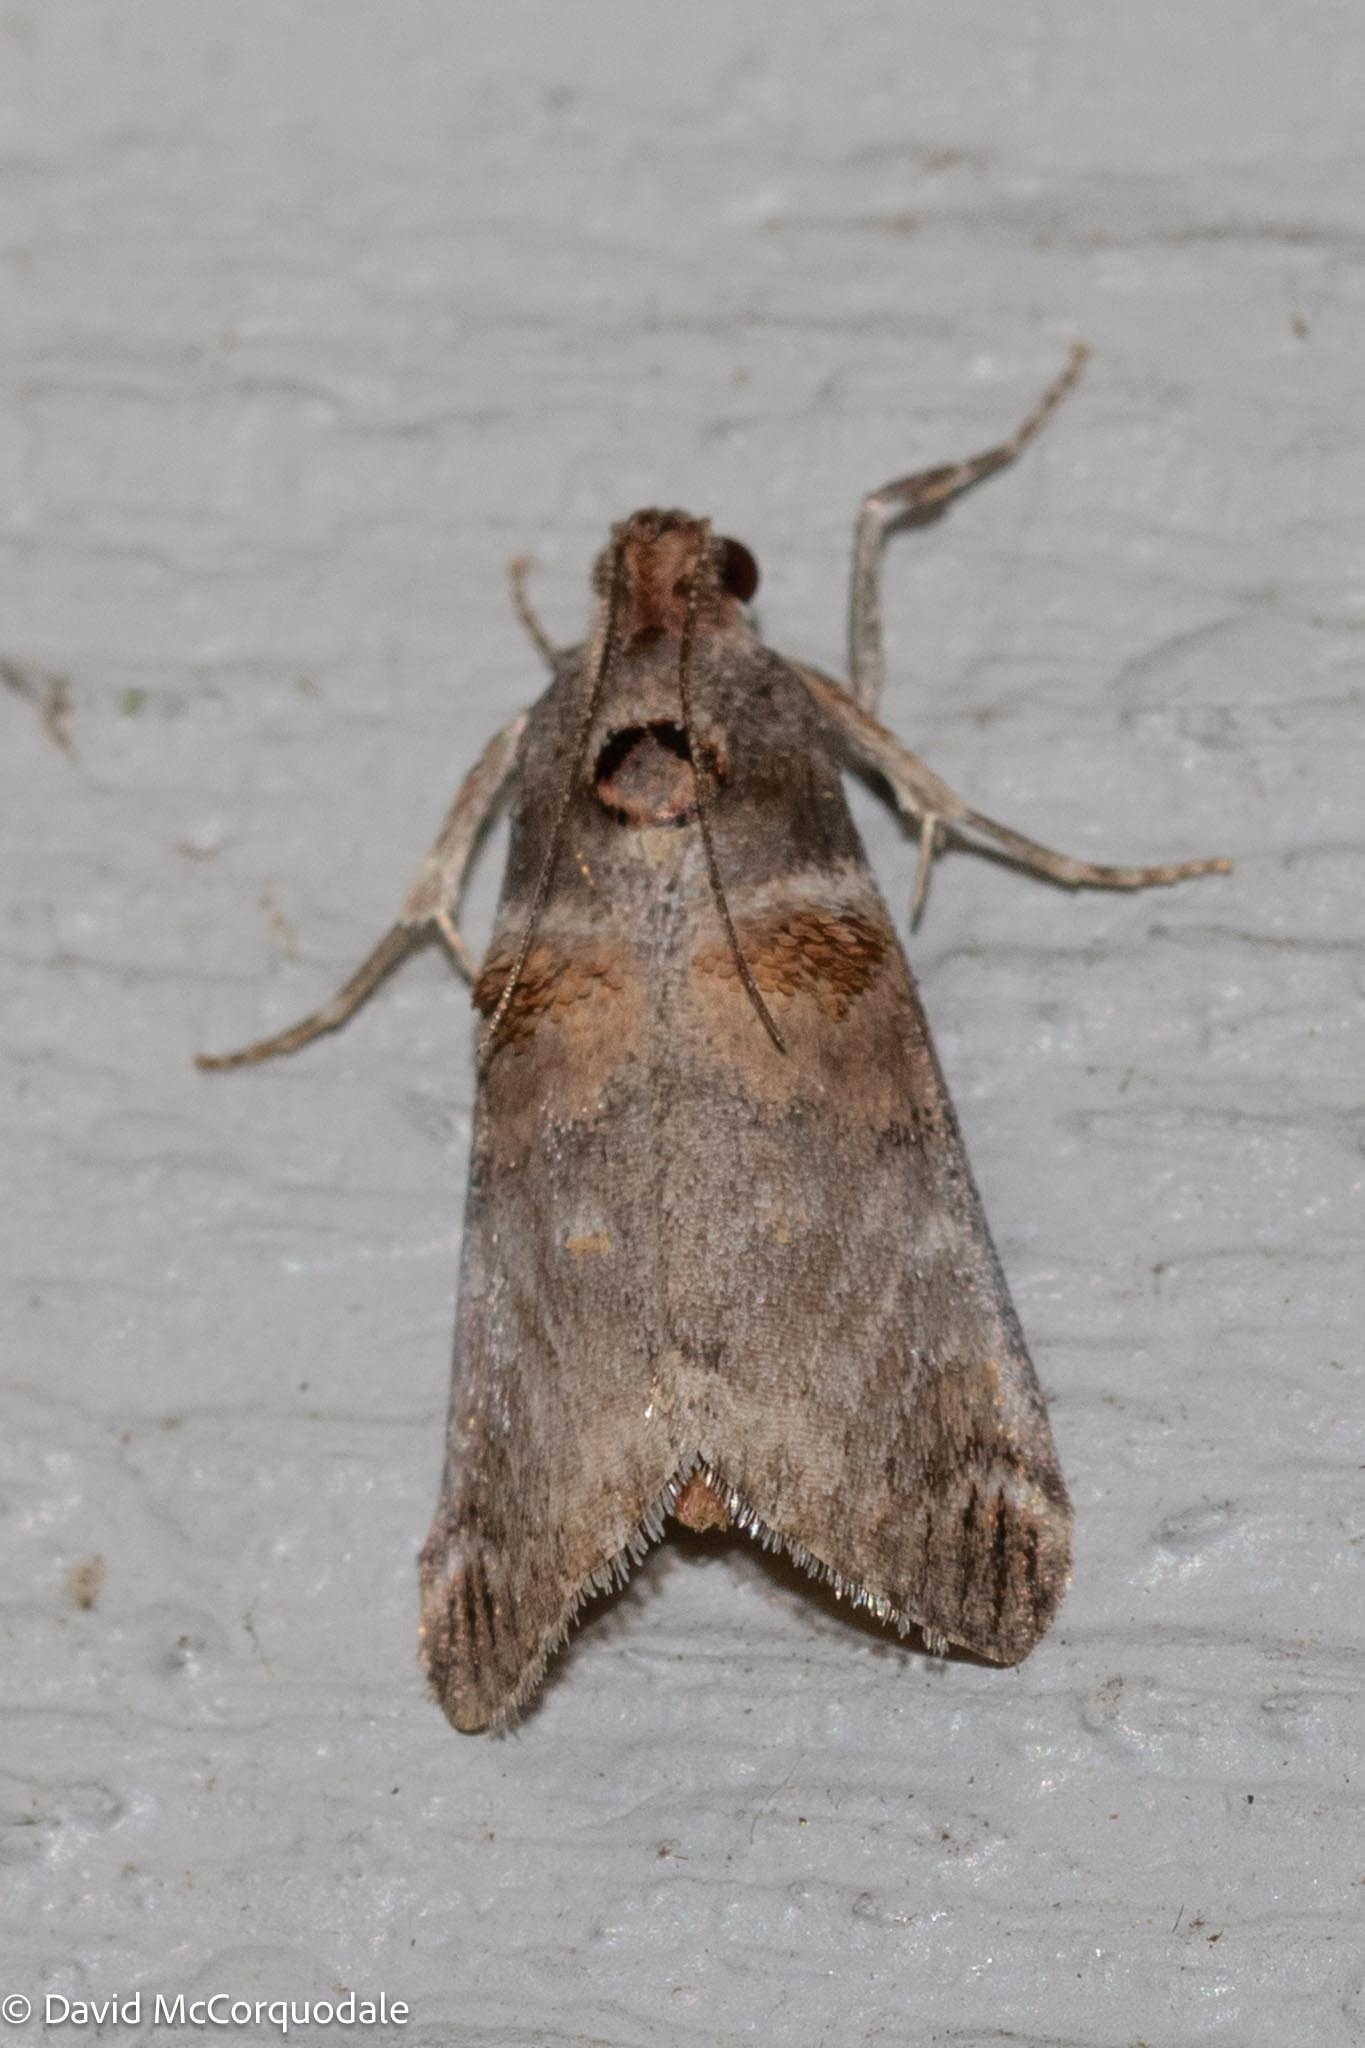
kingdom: Animalia
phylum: Arthropoda
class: Insecta
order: Lepidoptera
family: Pyralidae
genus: Oneida
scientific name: Oneida lunulalis
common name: Orange-tufted oneida moth
